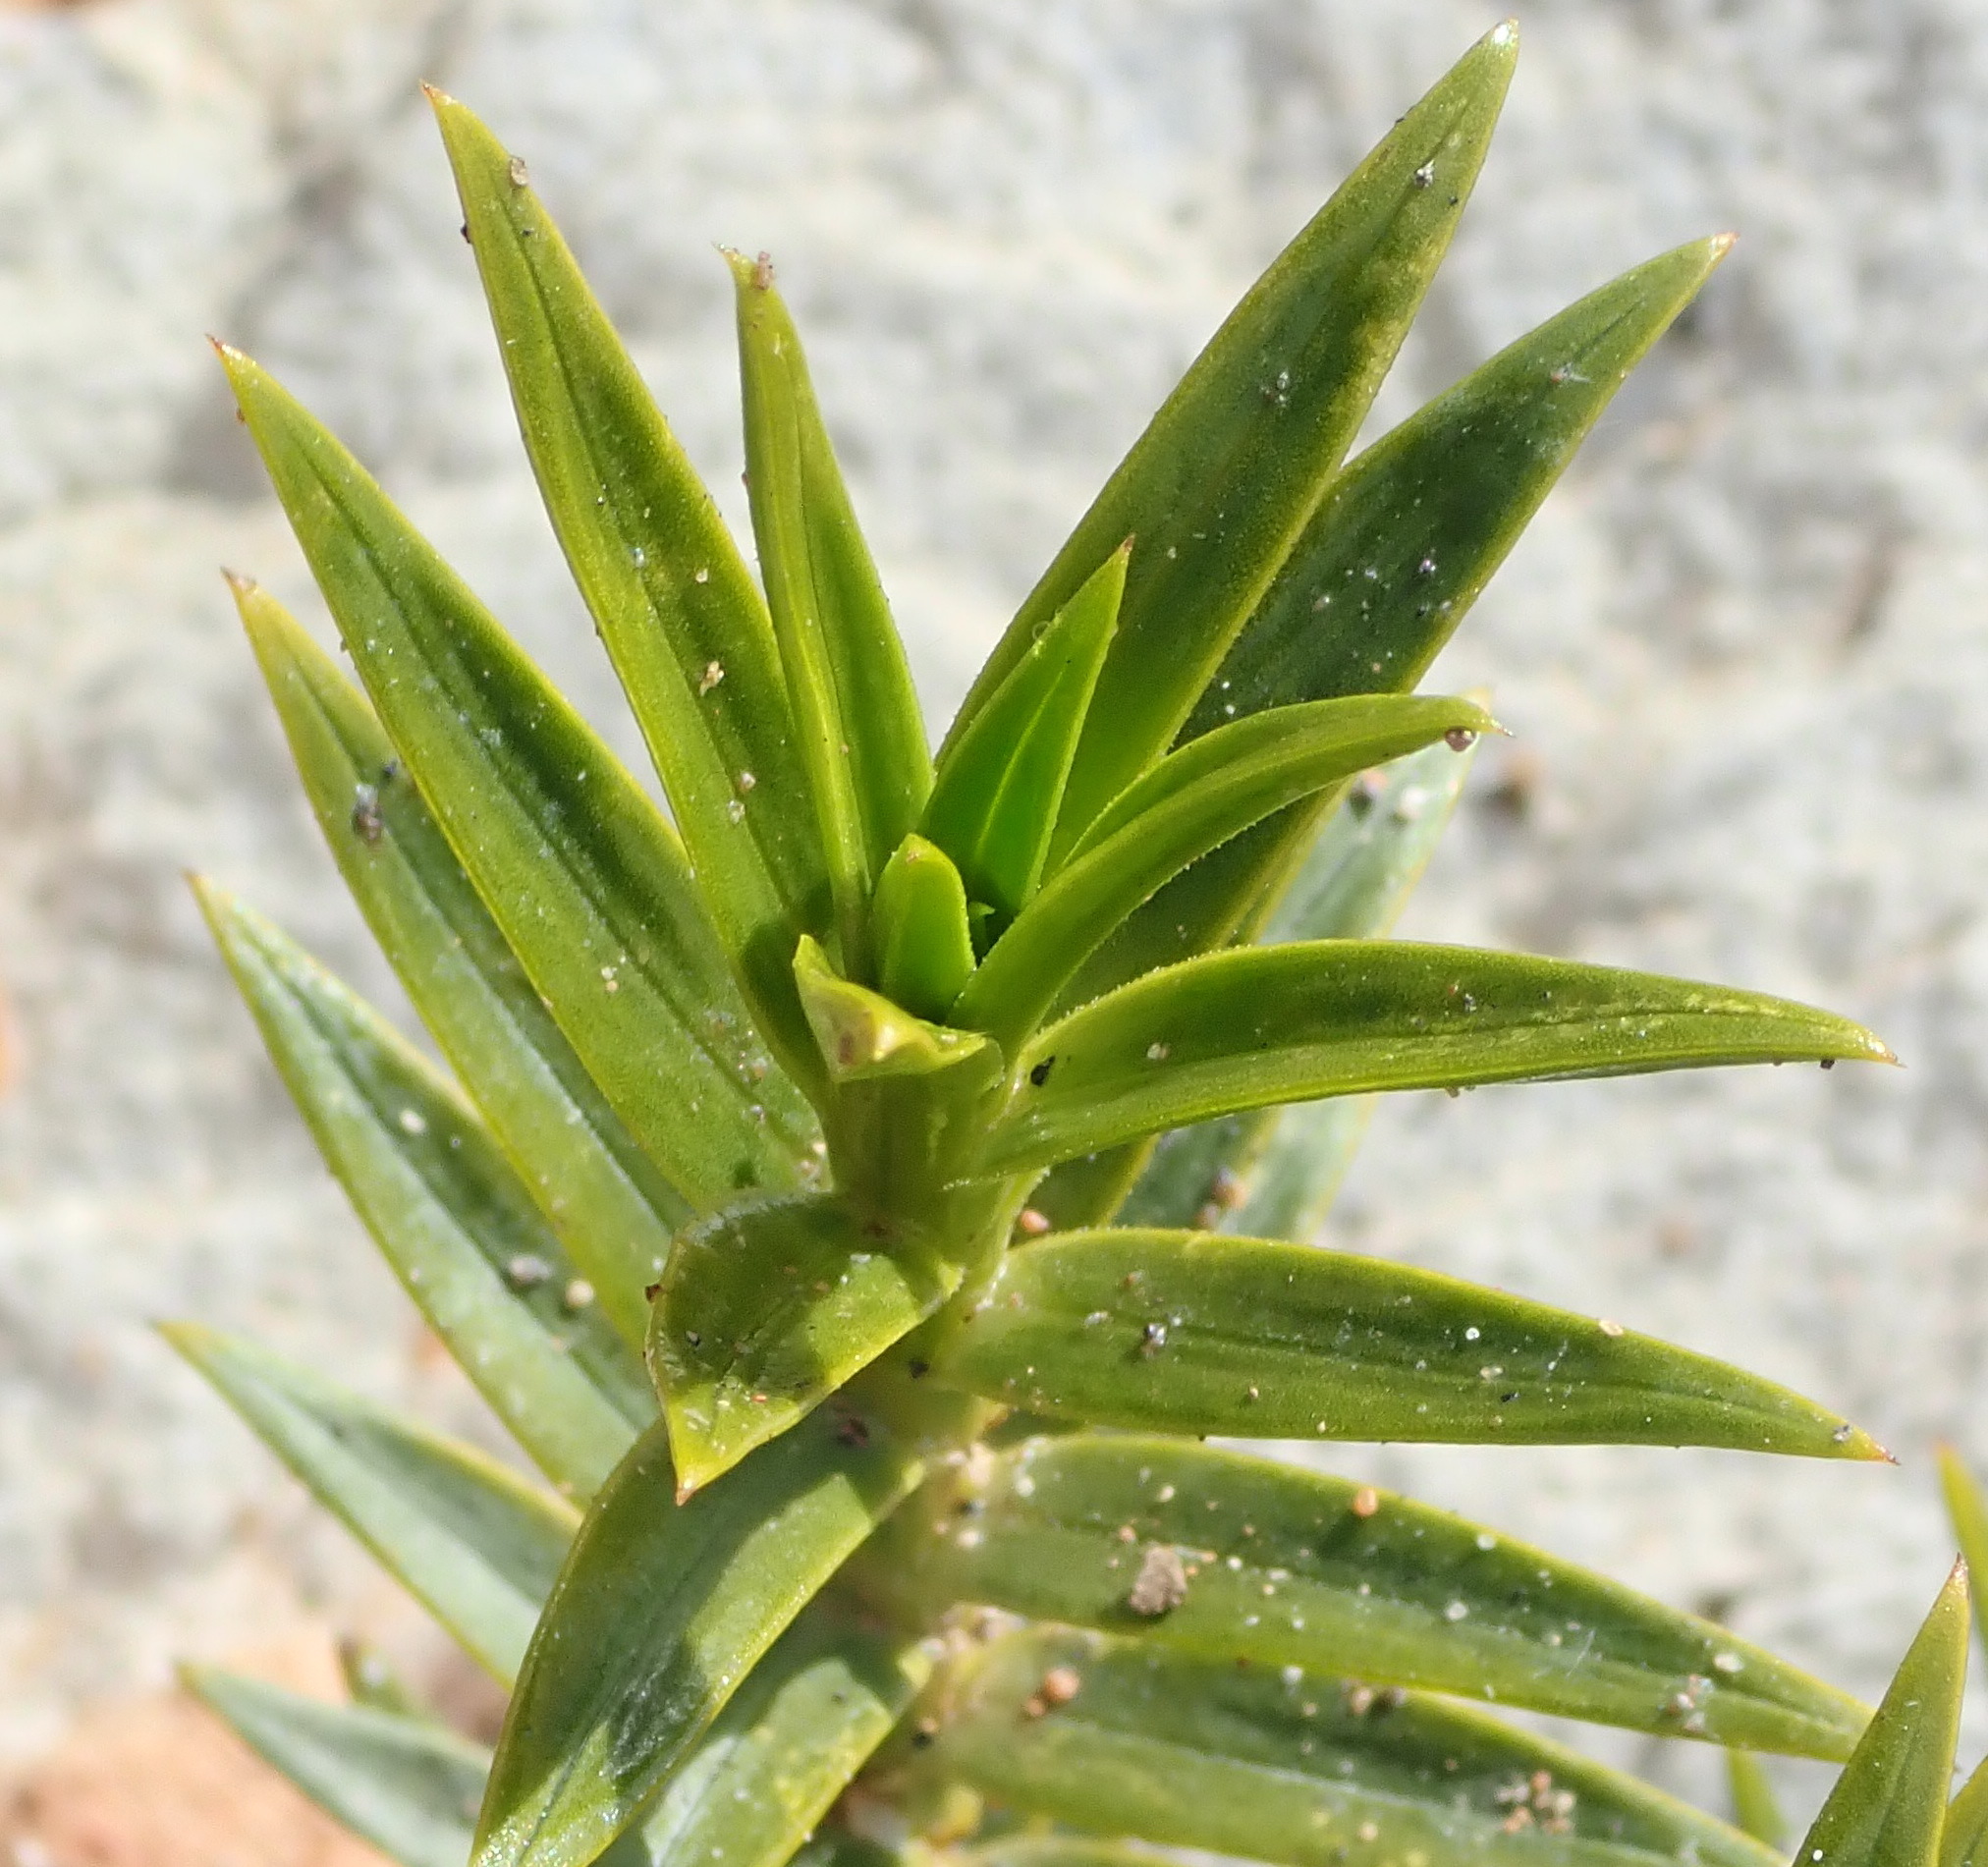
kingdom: Plantae
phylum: Tracheophyta
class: Magnoliopsida
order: Asterales
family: Asteraceae
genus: Pteronia
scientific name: Pteronia fasciculata
